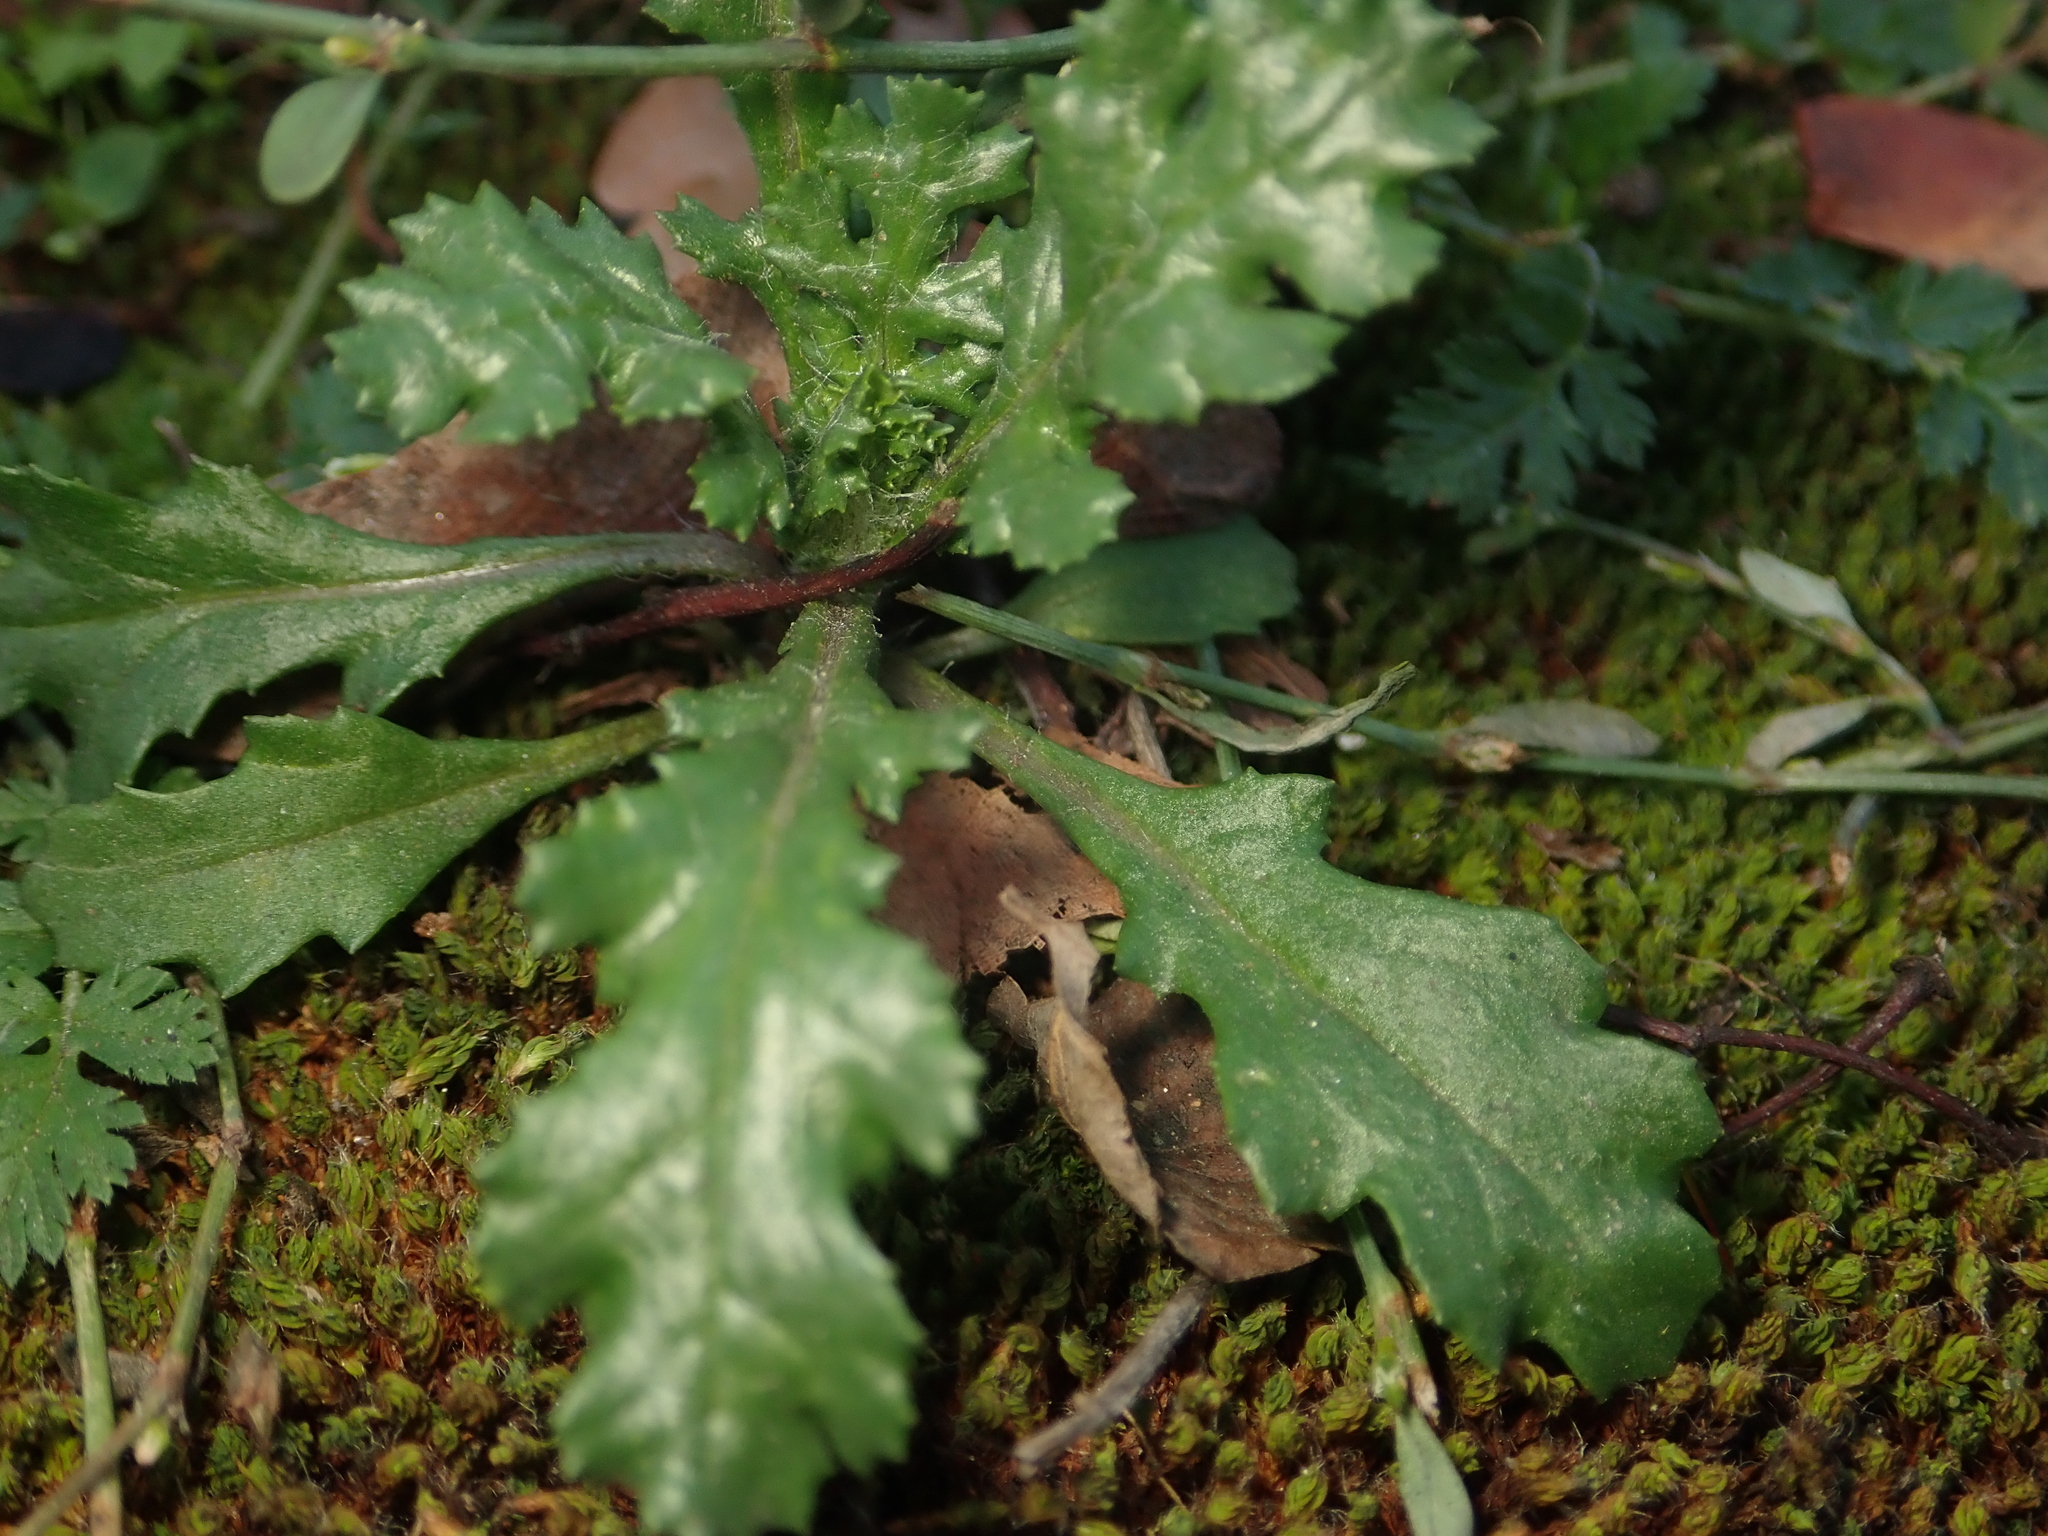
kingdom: Plantae
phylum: Tracheophyta
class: Magnoliopsida
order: Asterales
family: Asteraceae
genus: Senecio
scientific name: Senecio vulgaris
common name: Old-man-in-the-spring
